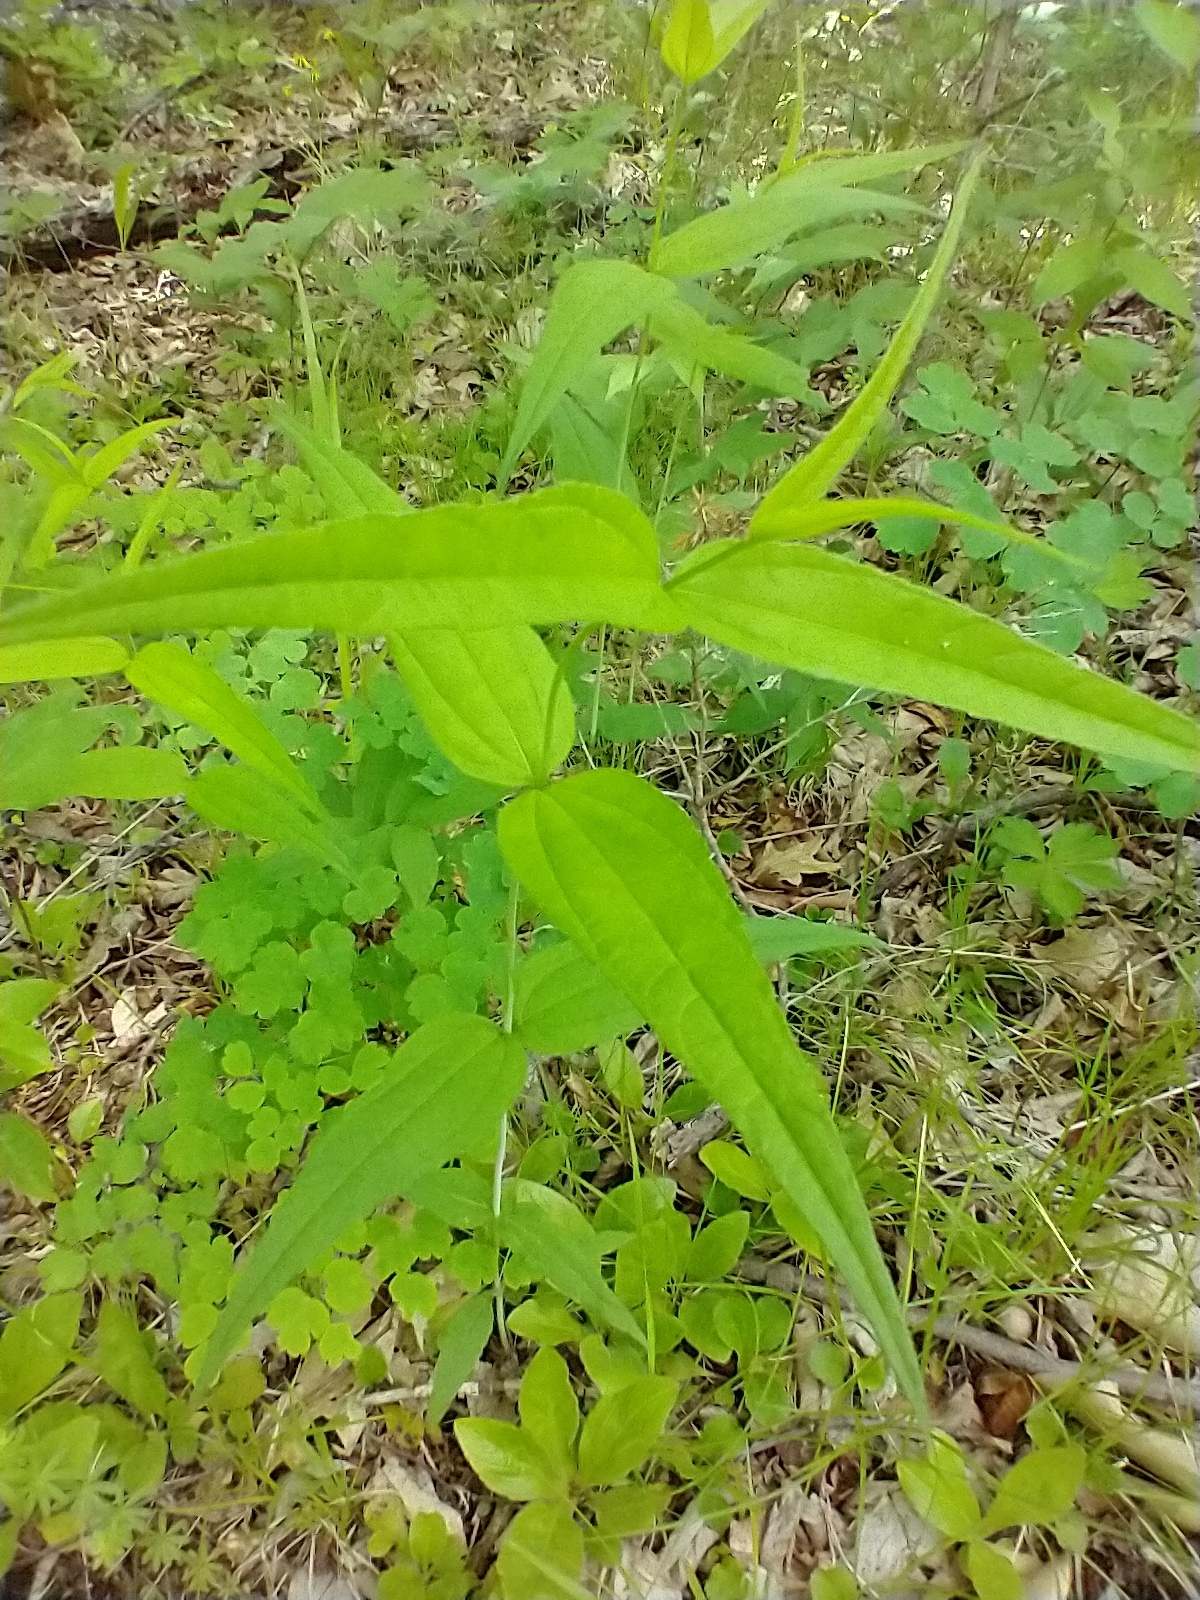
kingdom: Plantae
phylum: Tracheophyta
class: Magnoliopsida
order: Asterales
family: Asteraceae
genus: Helianthus
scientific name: Helianthus divaricatus
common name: Divergent sunflower
